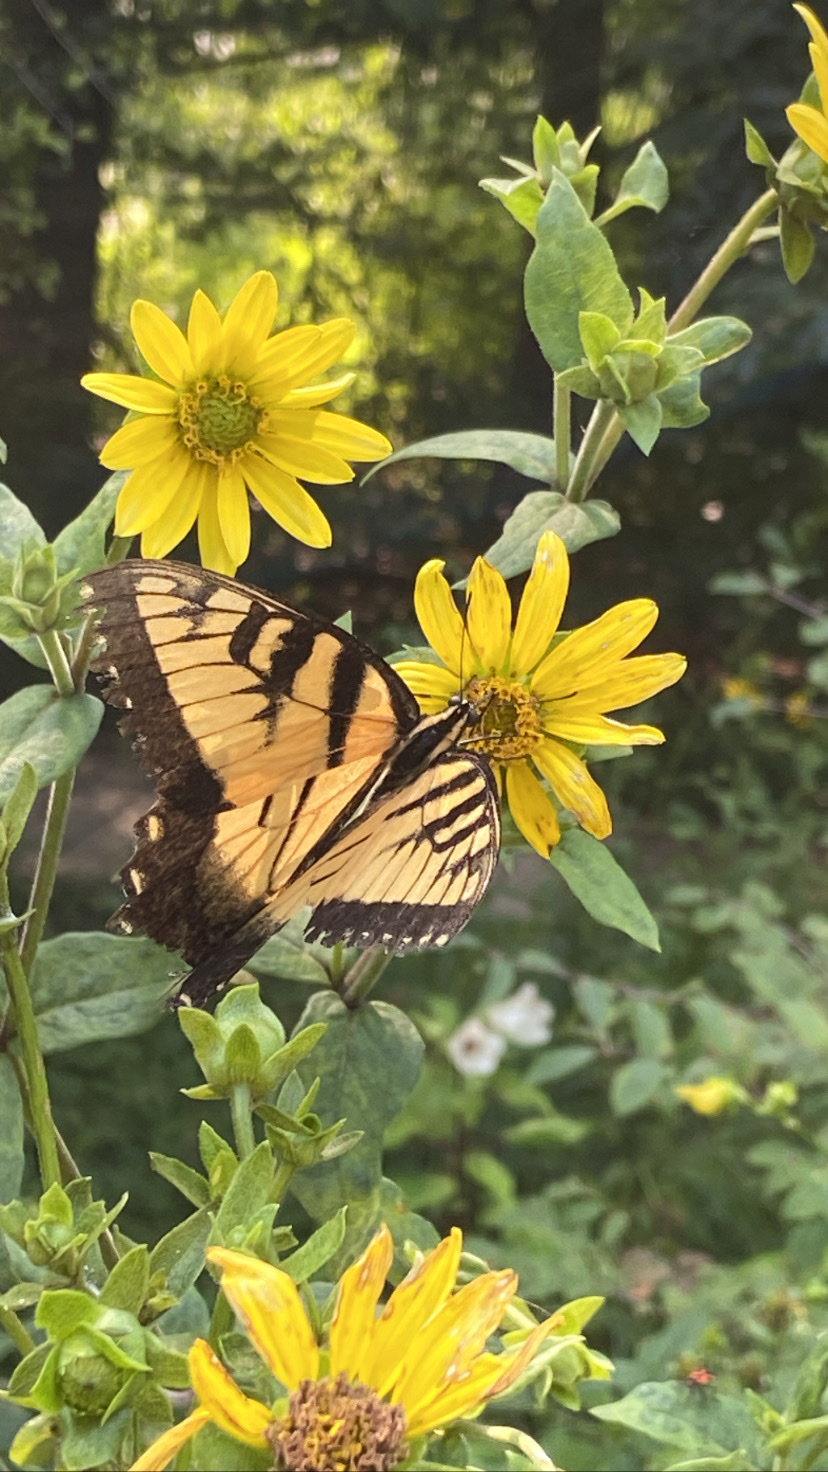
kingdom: Animalia
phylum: Arthropoda
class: Insecta
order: Lepidoptera
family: Papilionidae
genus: Papilio
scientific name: Papilio glaucus
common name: Tiger swallowtail
